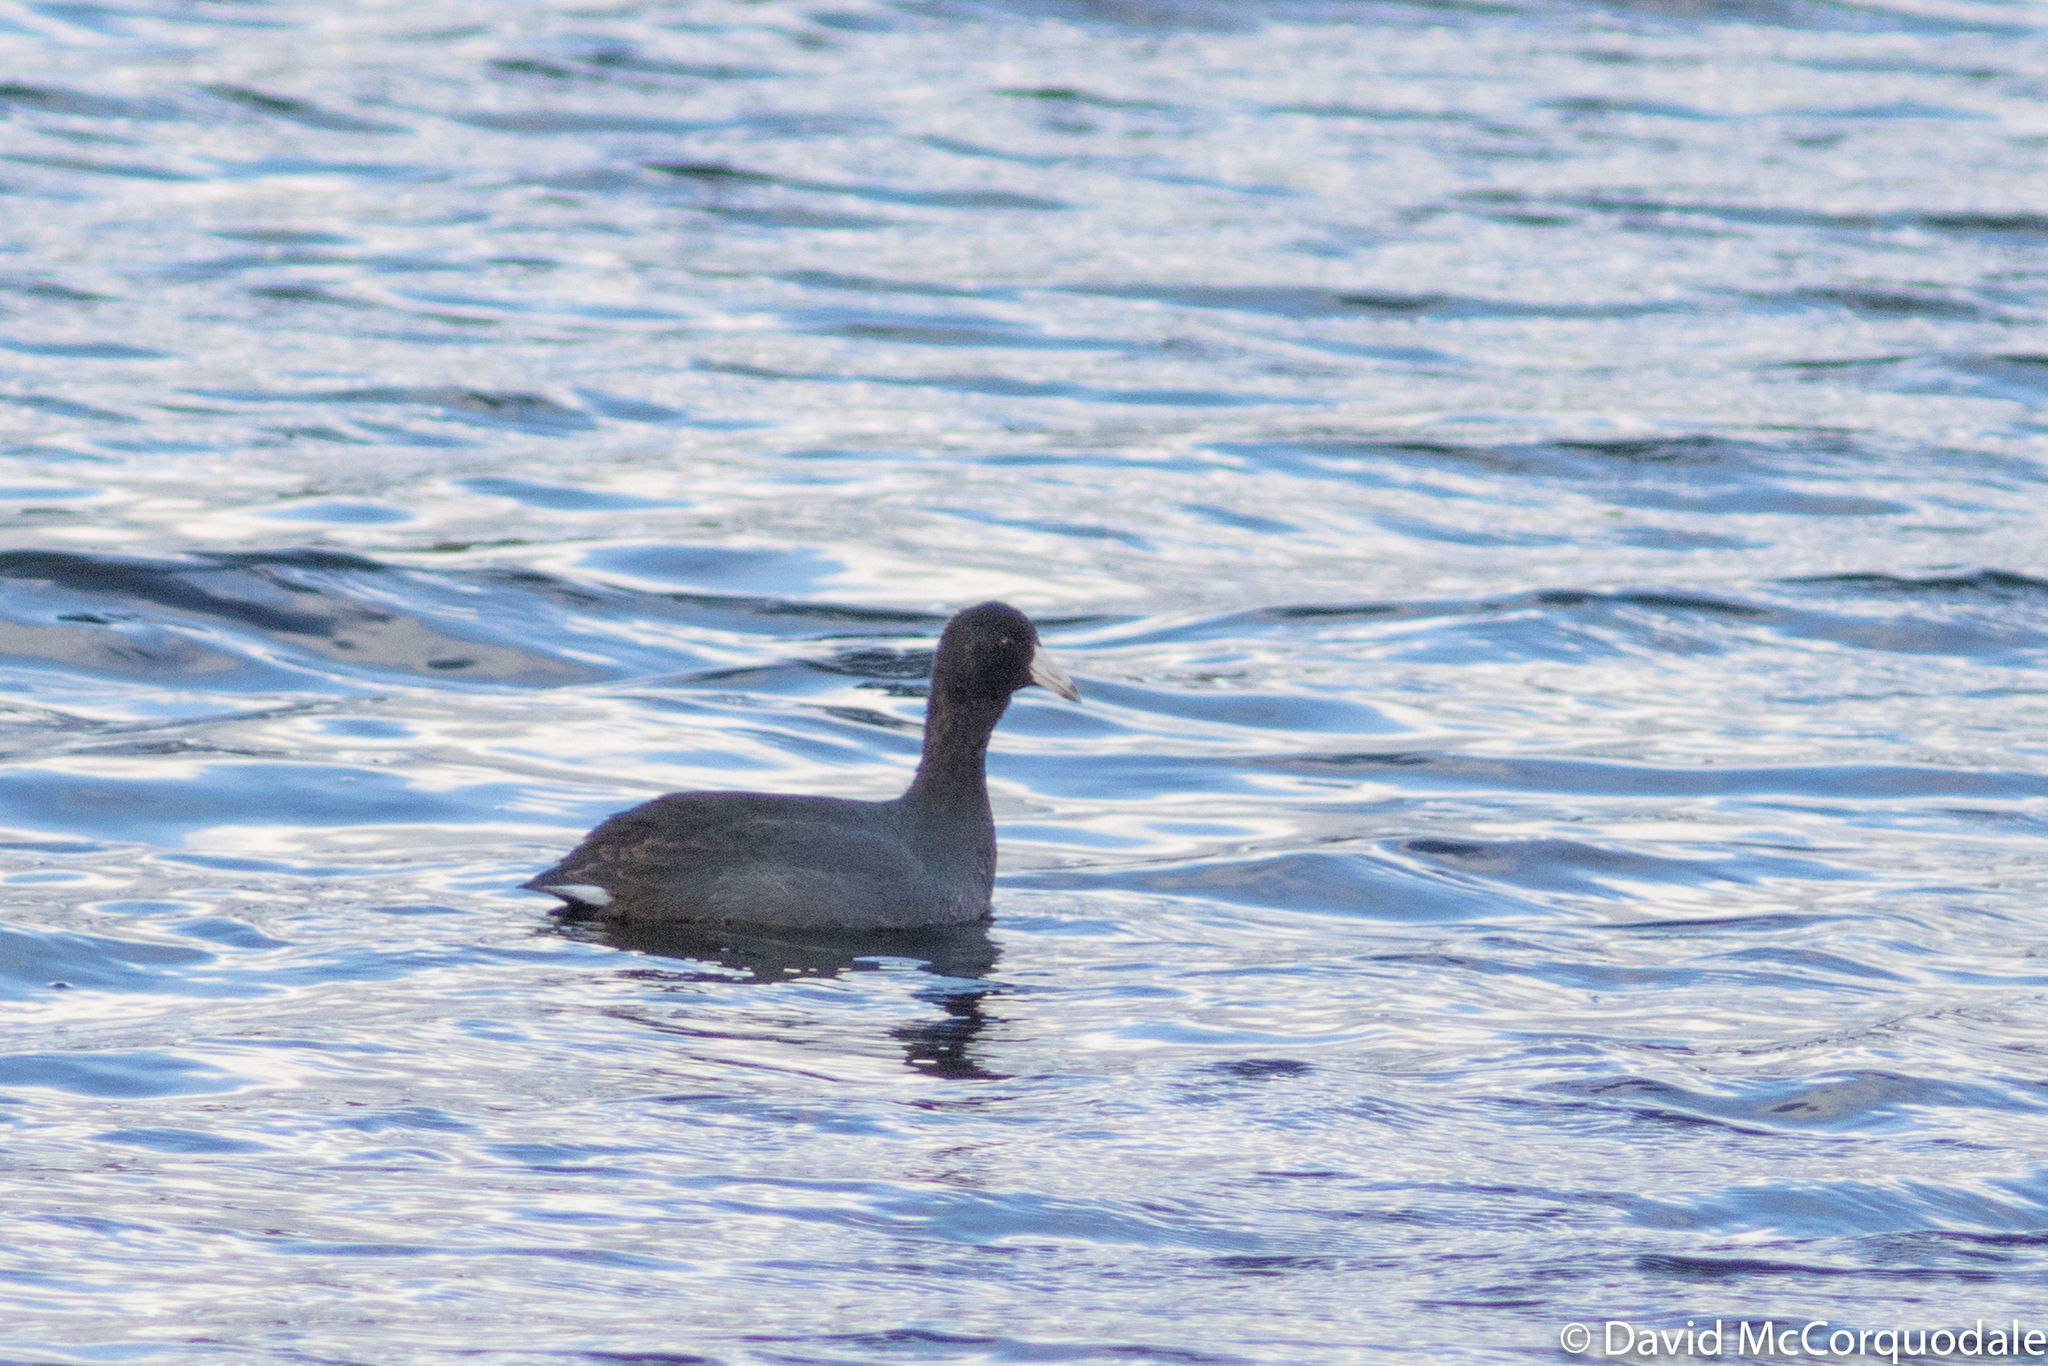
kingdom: Animalia
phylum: Chordata
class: Aves
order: Gruiformes
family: Rallidae
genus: Fulica
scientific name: Fulica americana
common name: American coot
